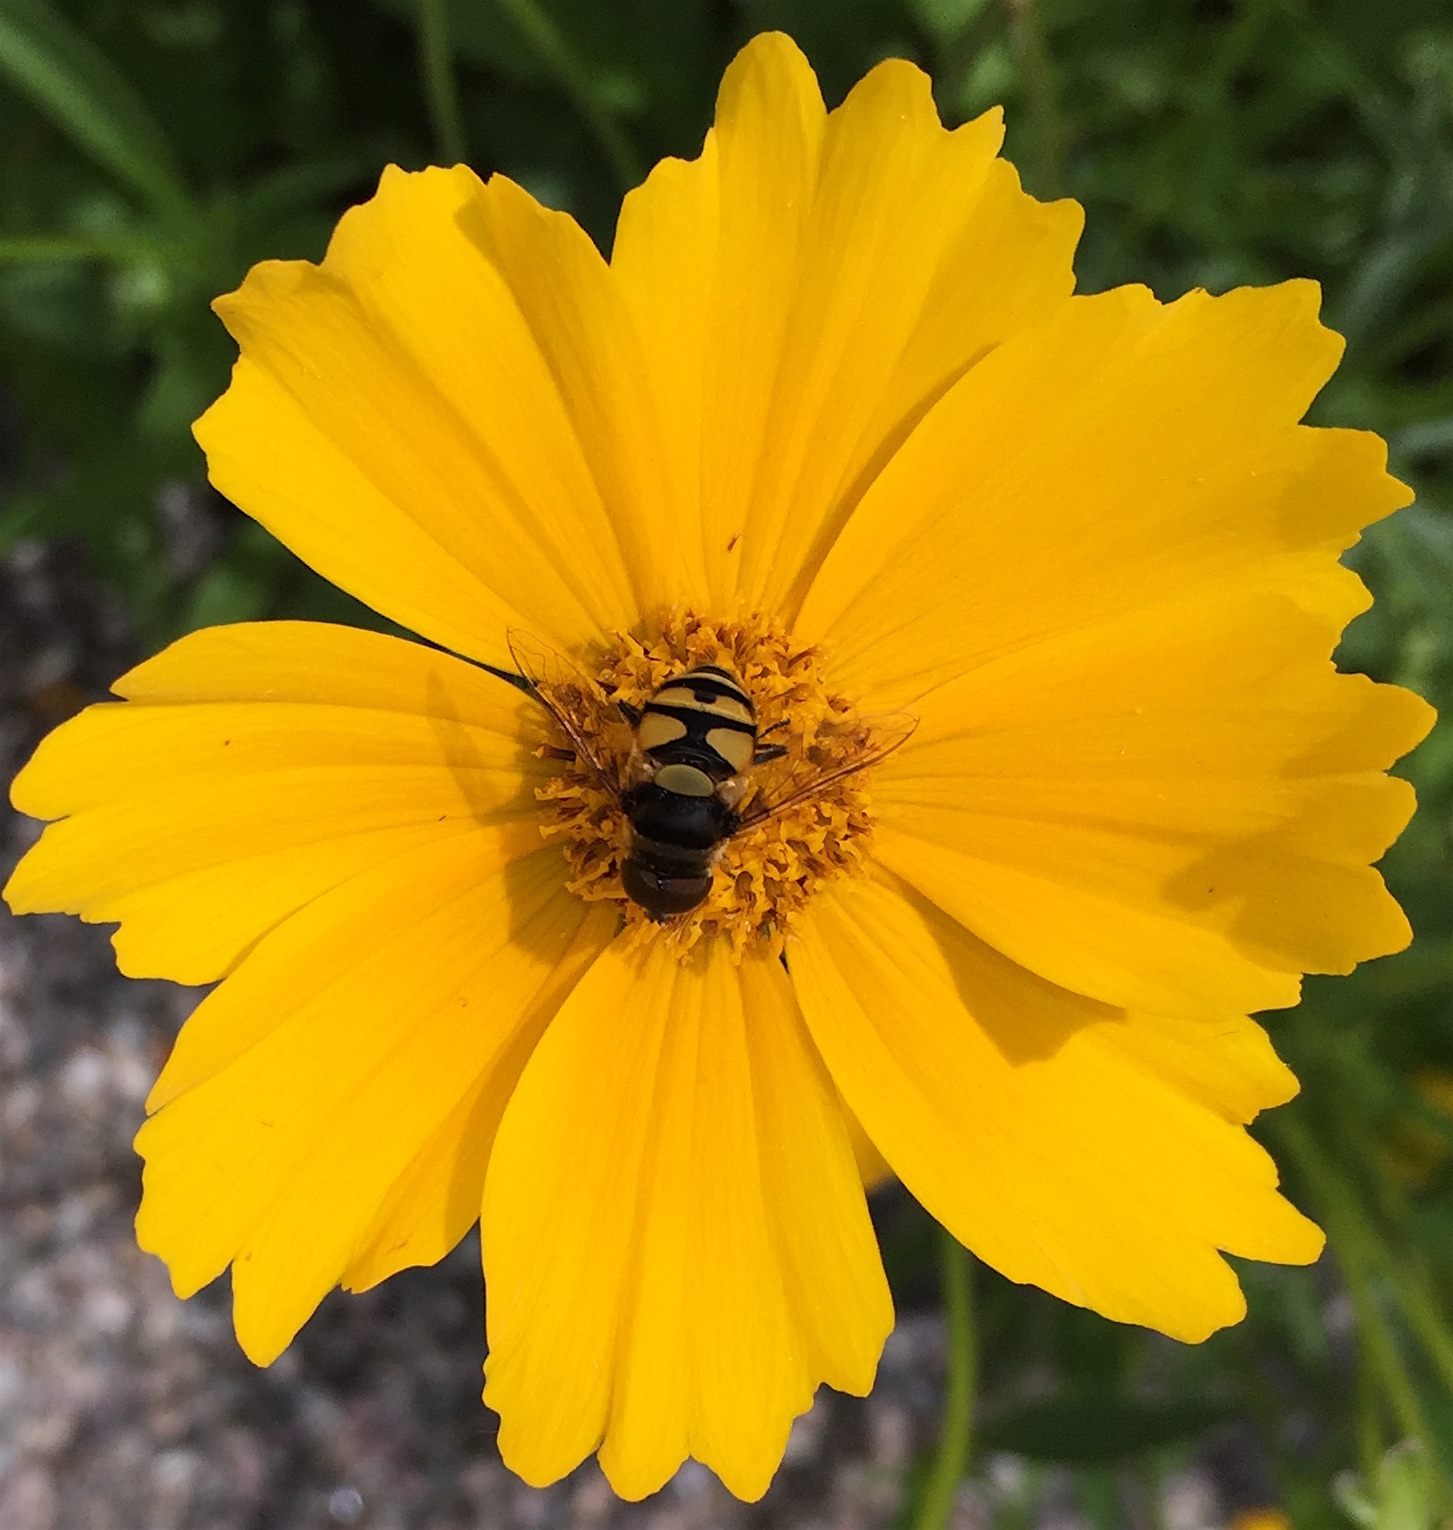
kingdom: Animalia
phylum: Arthropoda
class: Insecta
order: Diptera
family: Syrphidae
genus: Eristalis
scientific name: Eristalis transversa
